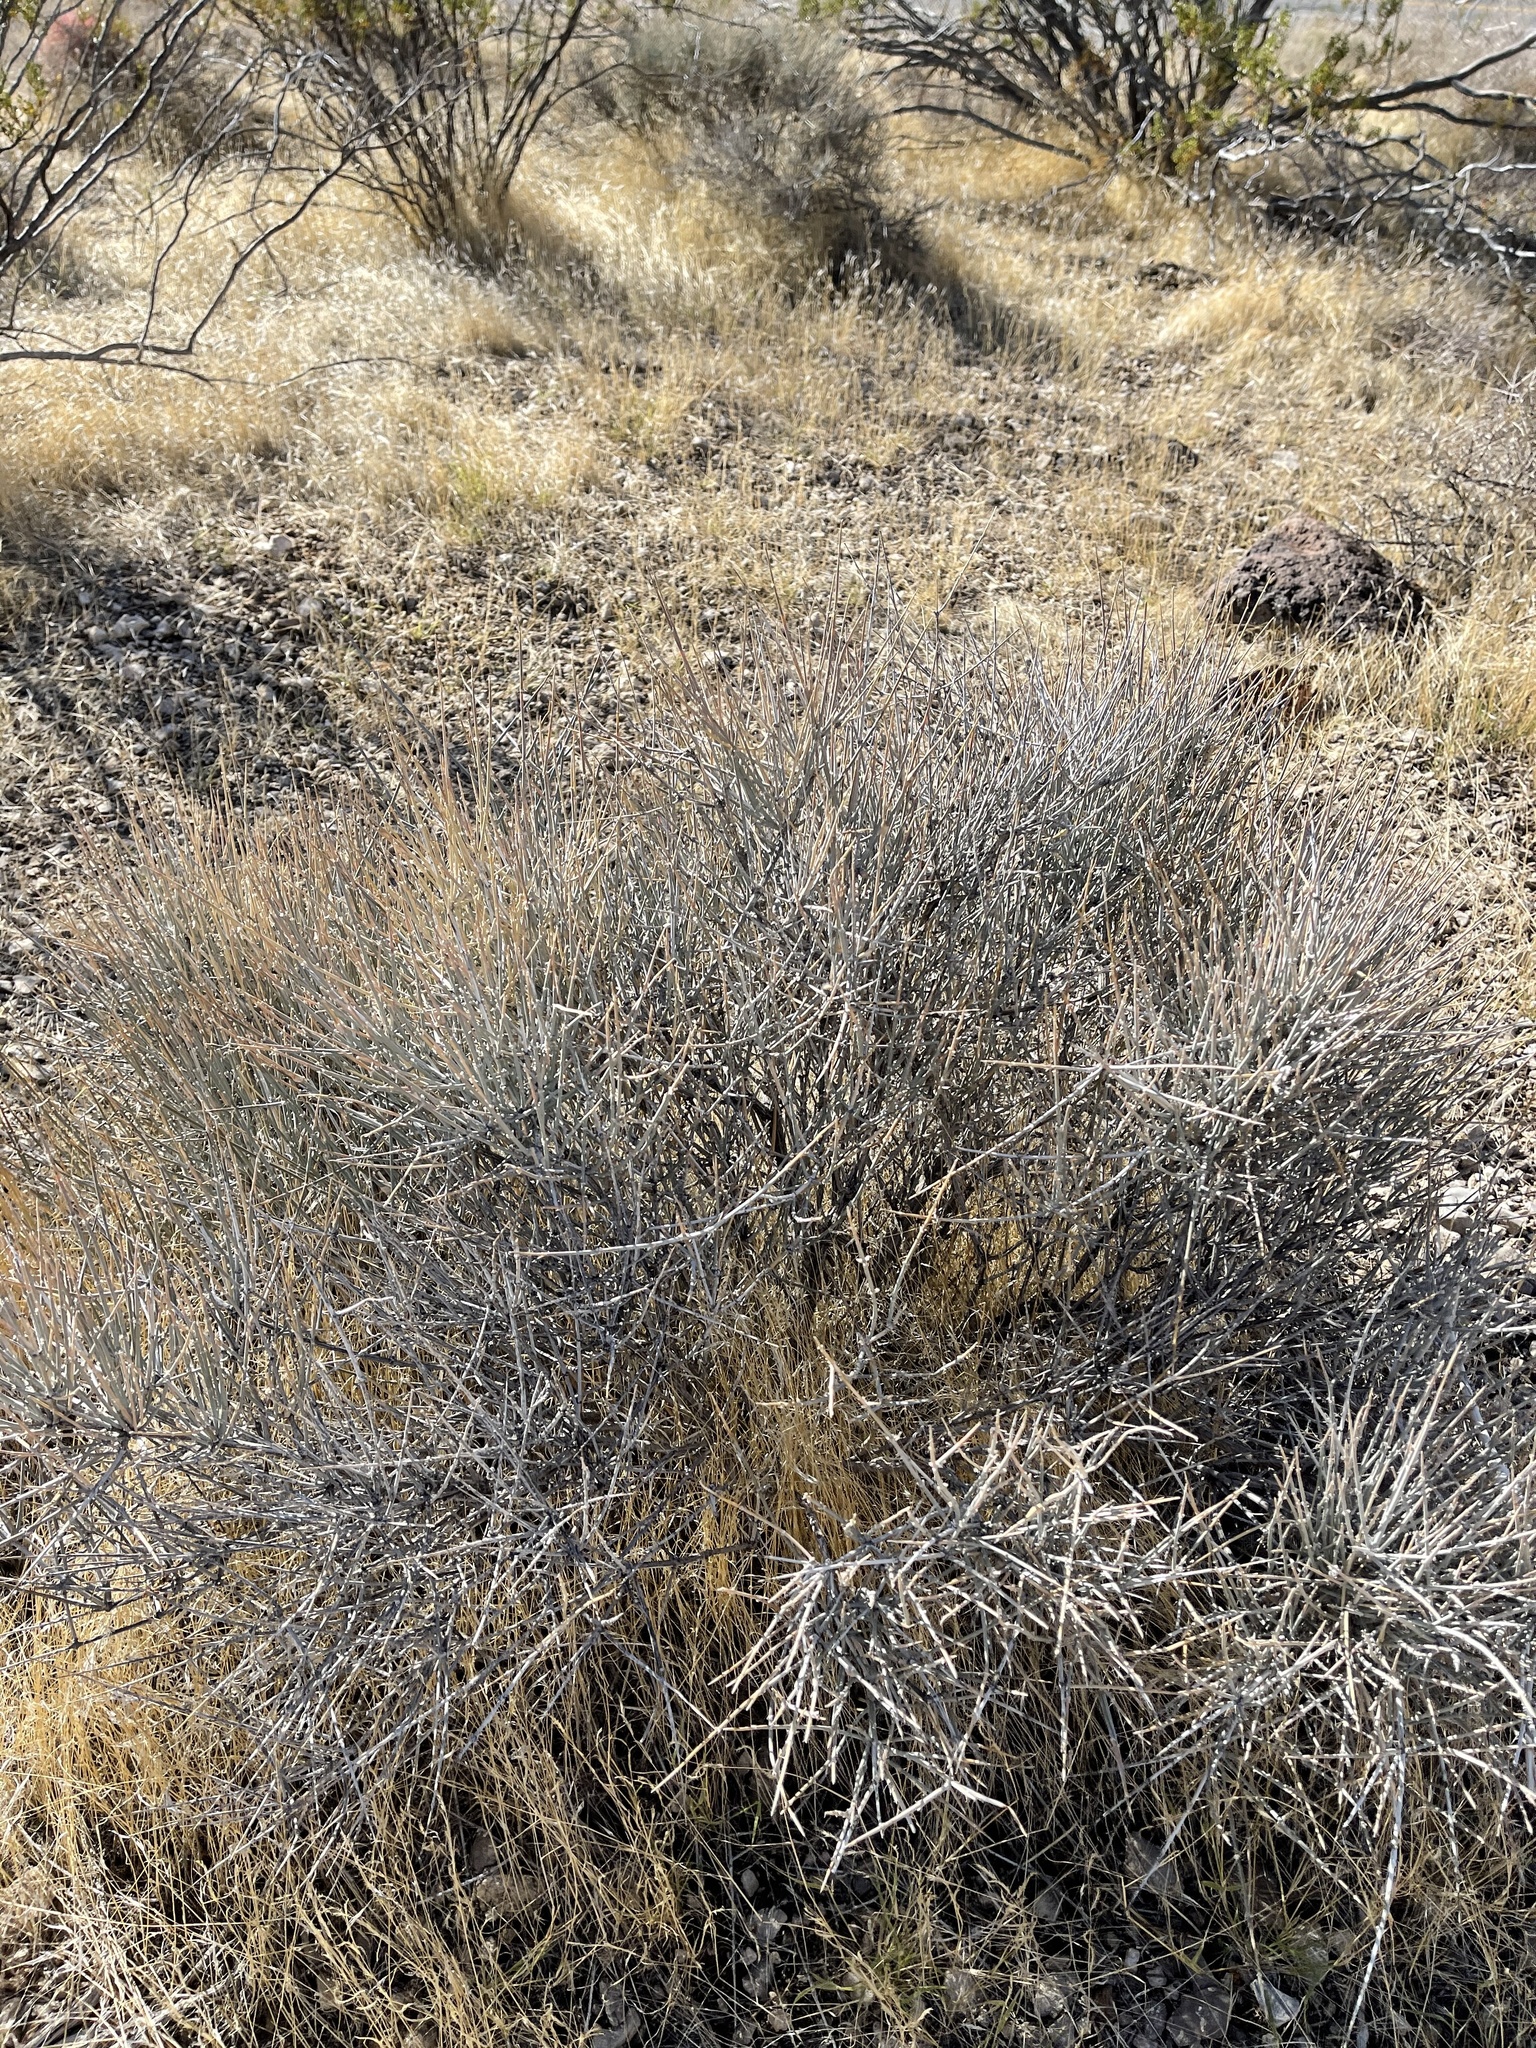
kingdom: Plantae
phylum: Tracheophyta
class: Gnetopsida
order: Ephedrales
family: Ephedraceae
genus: Ephedra
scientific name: Ephedra nevadensis
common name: Gray ephedra
